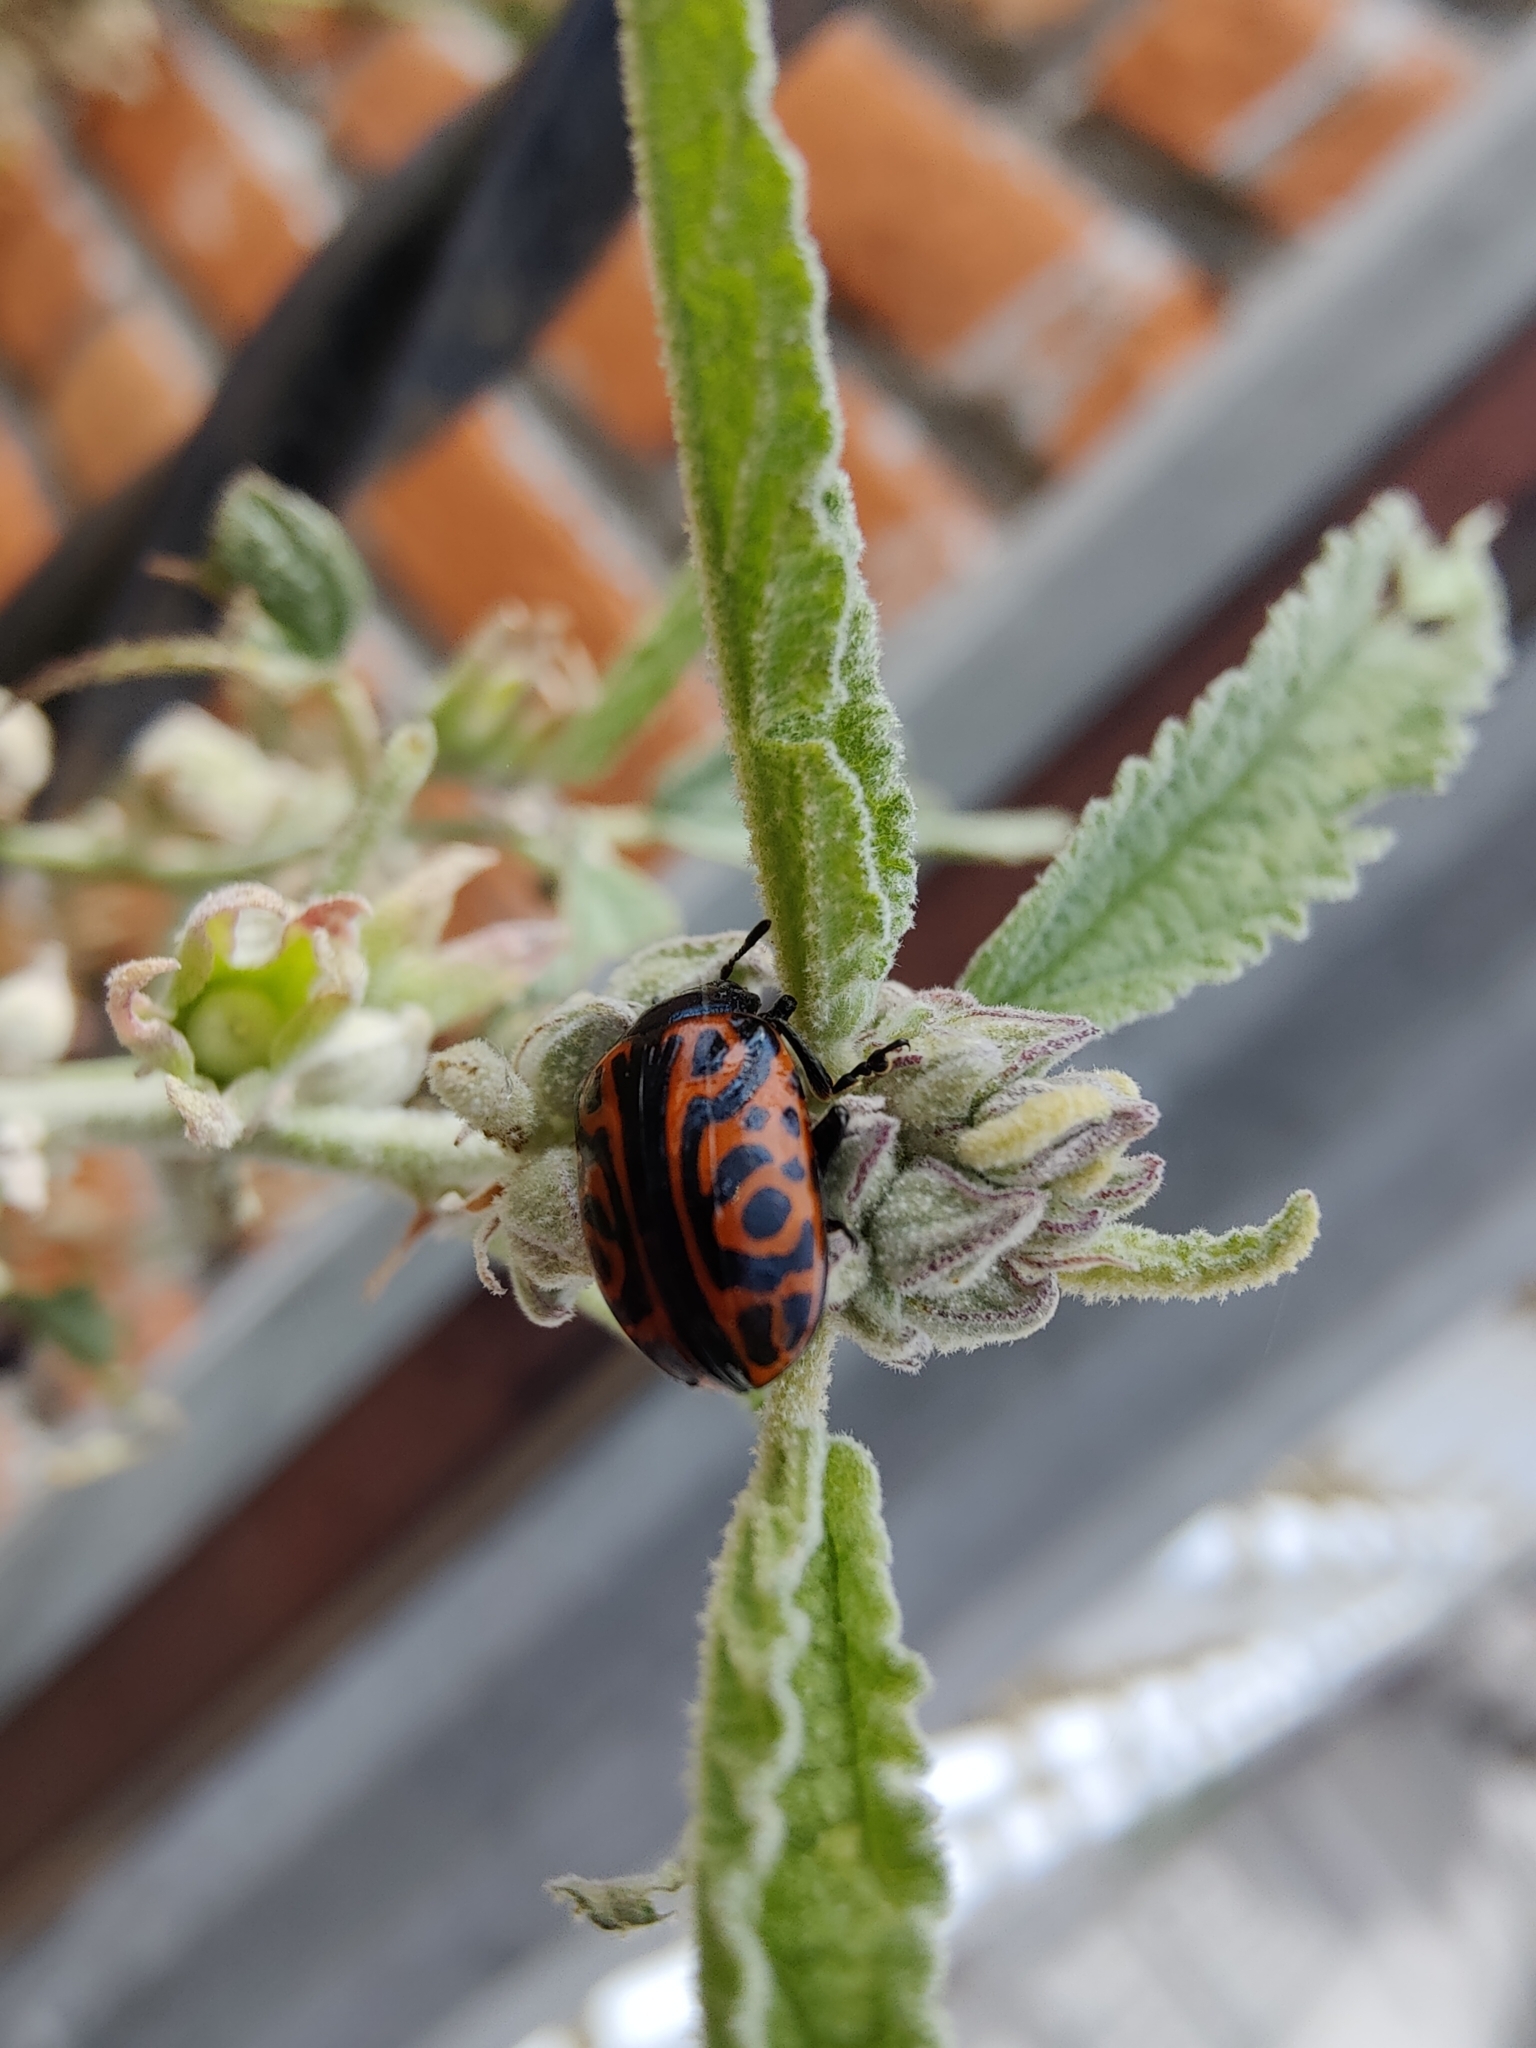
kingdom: Animalia
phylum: Arthropoda
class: Insecta
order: Coleoptera
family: Chrysomelidae
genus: Calligrapha
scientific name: Calligrapha mexicana
